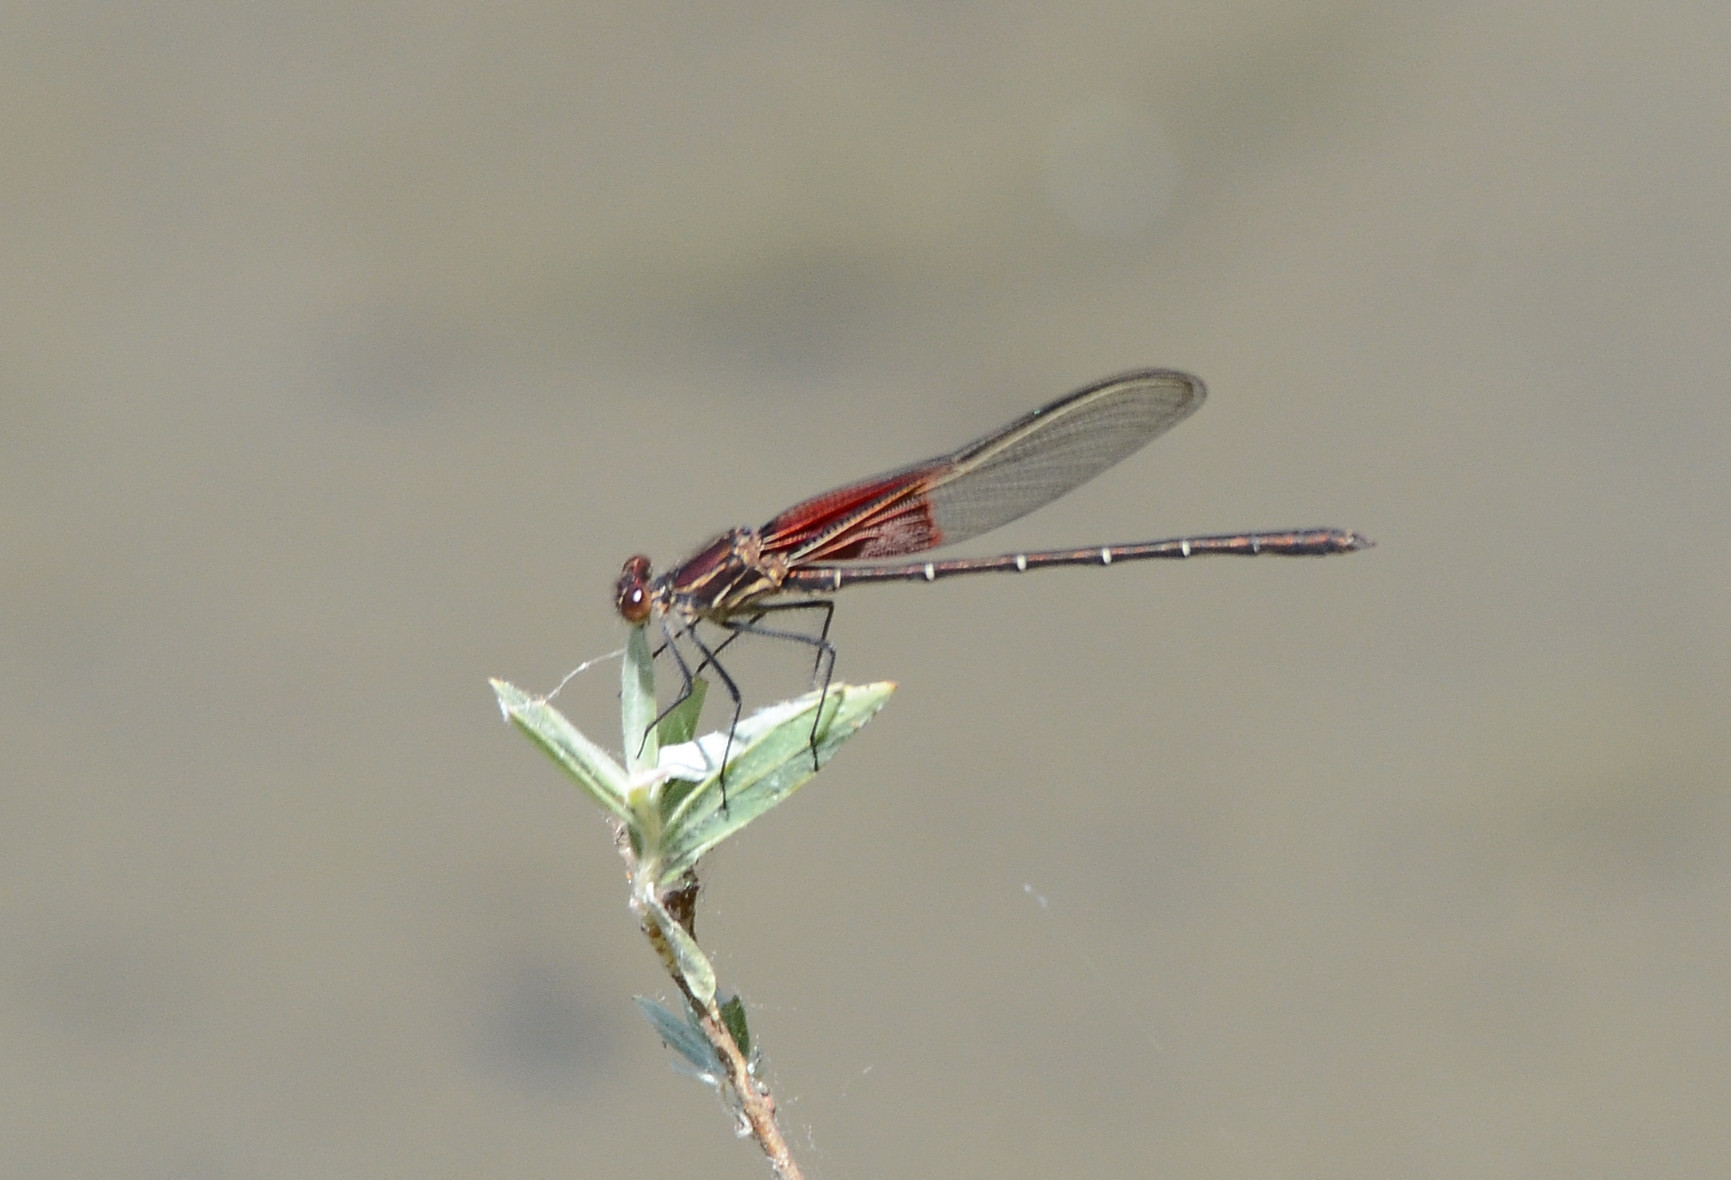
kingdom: Animalia
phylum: Arthropoda
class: Insecta
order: Odonata
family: Calopterygidae
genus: Hetaerina
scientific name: Hetaerina americana
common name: American rubyspot
